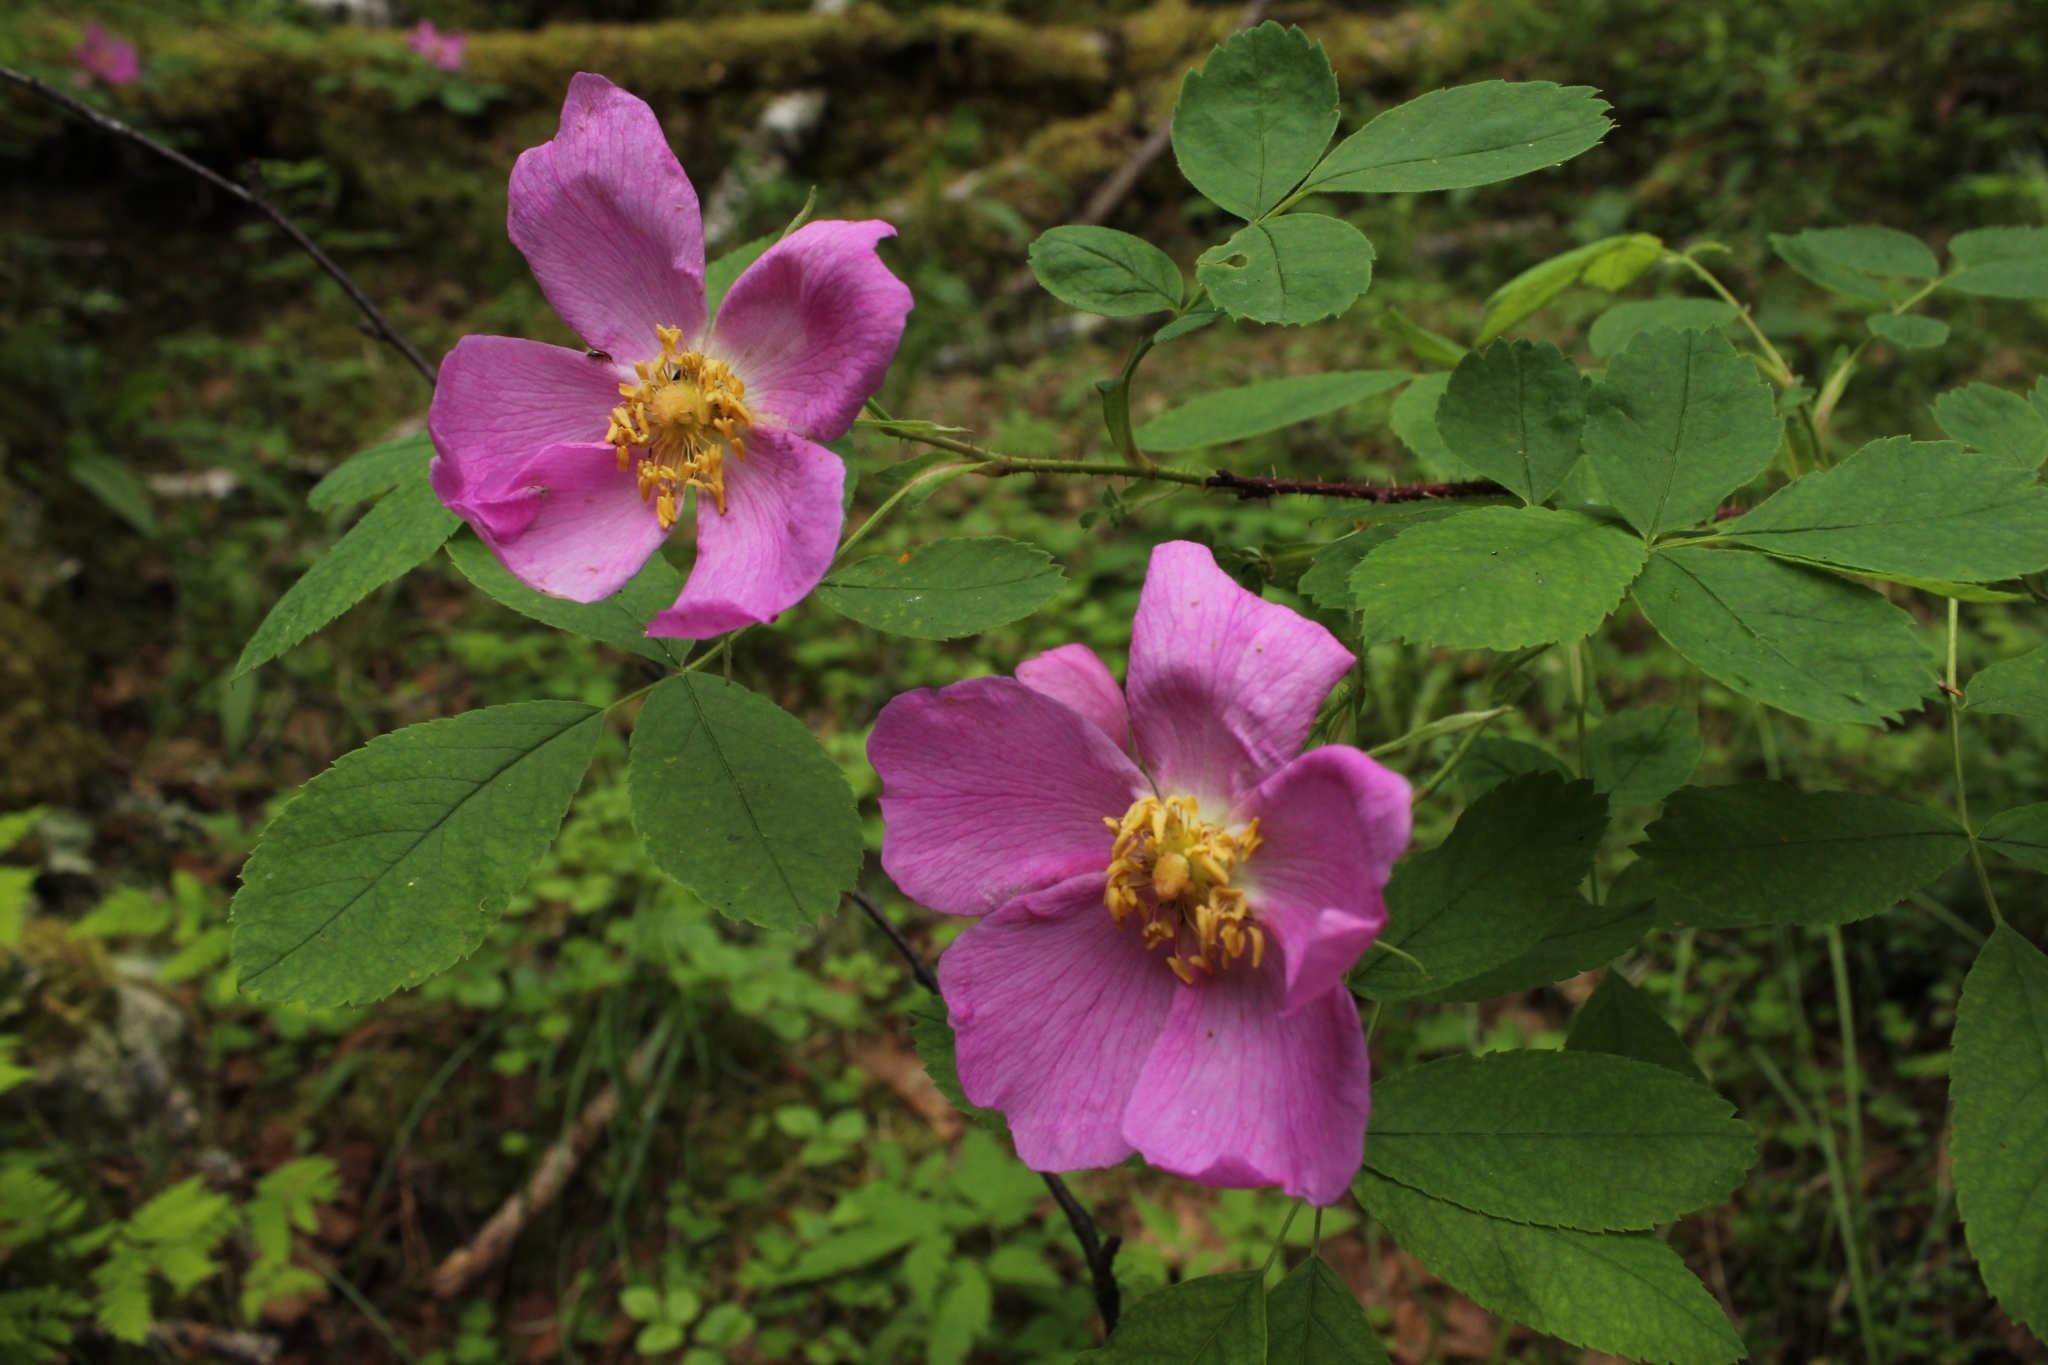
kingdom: Plantae
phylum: Tracheophyta
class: Magnoliopsida
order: Rosales
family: Rosaceae
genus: Rosa
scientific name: Rosa acicularis
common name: Prickly rose
